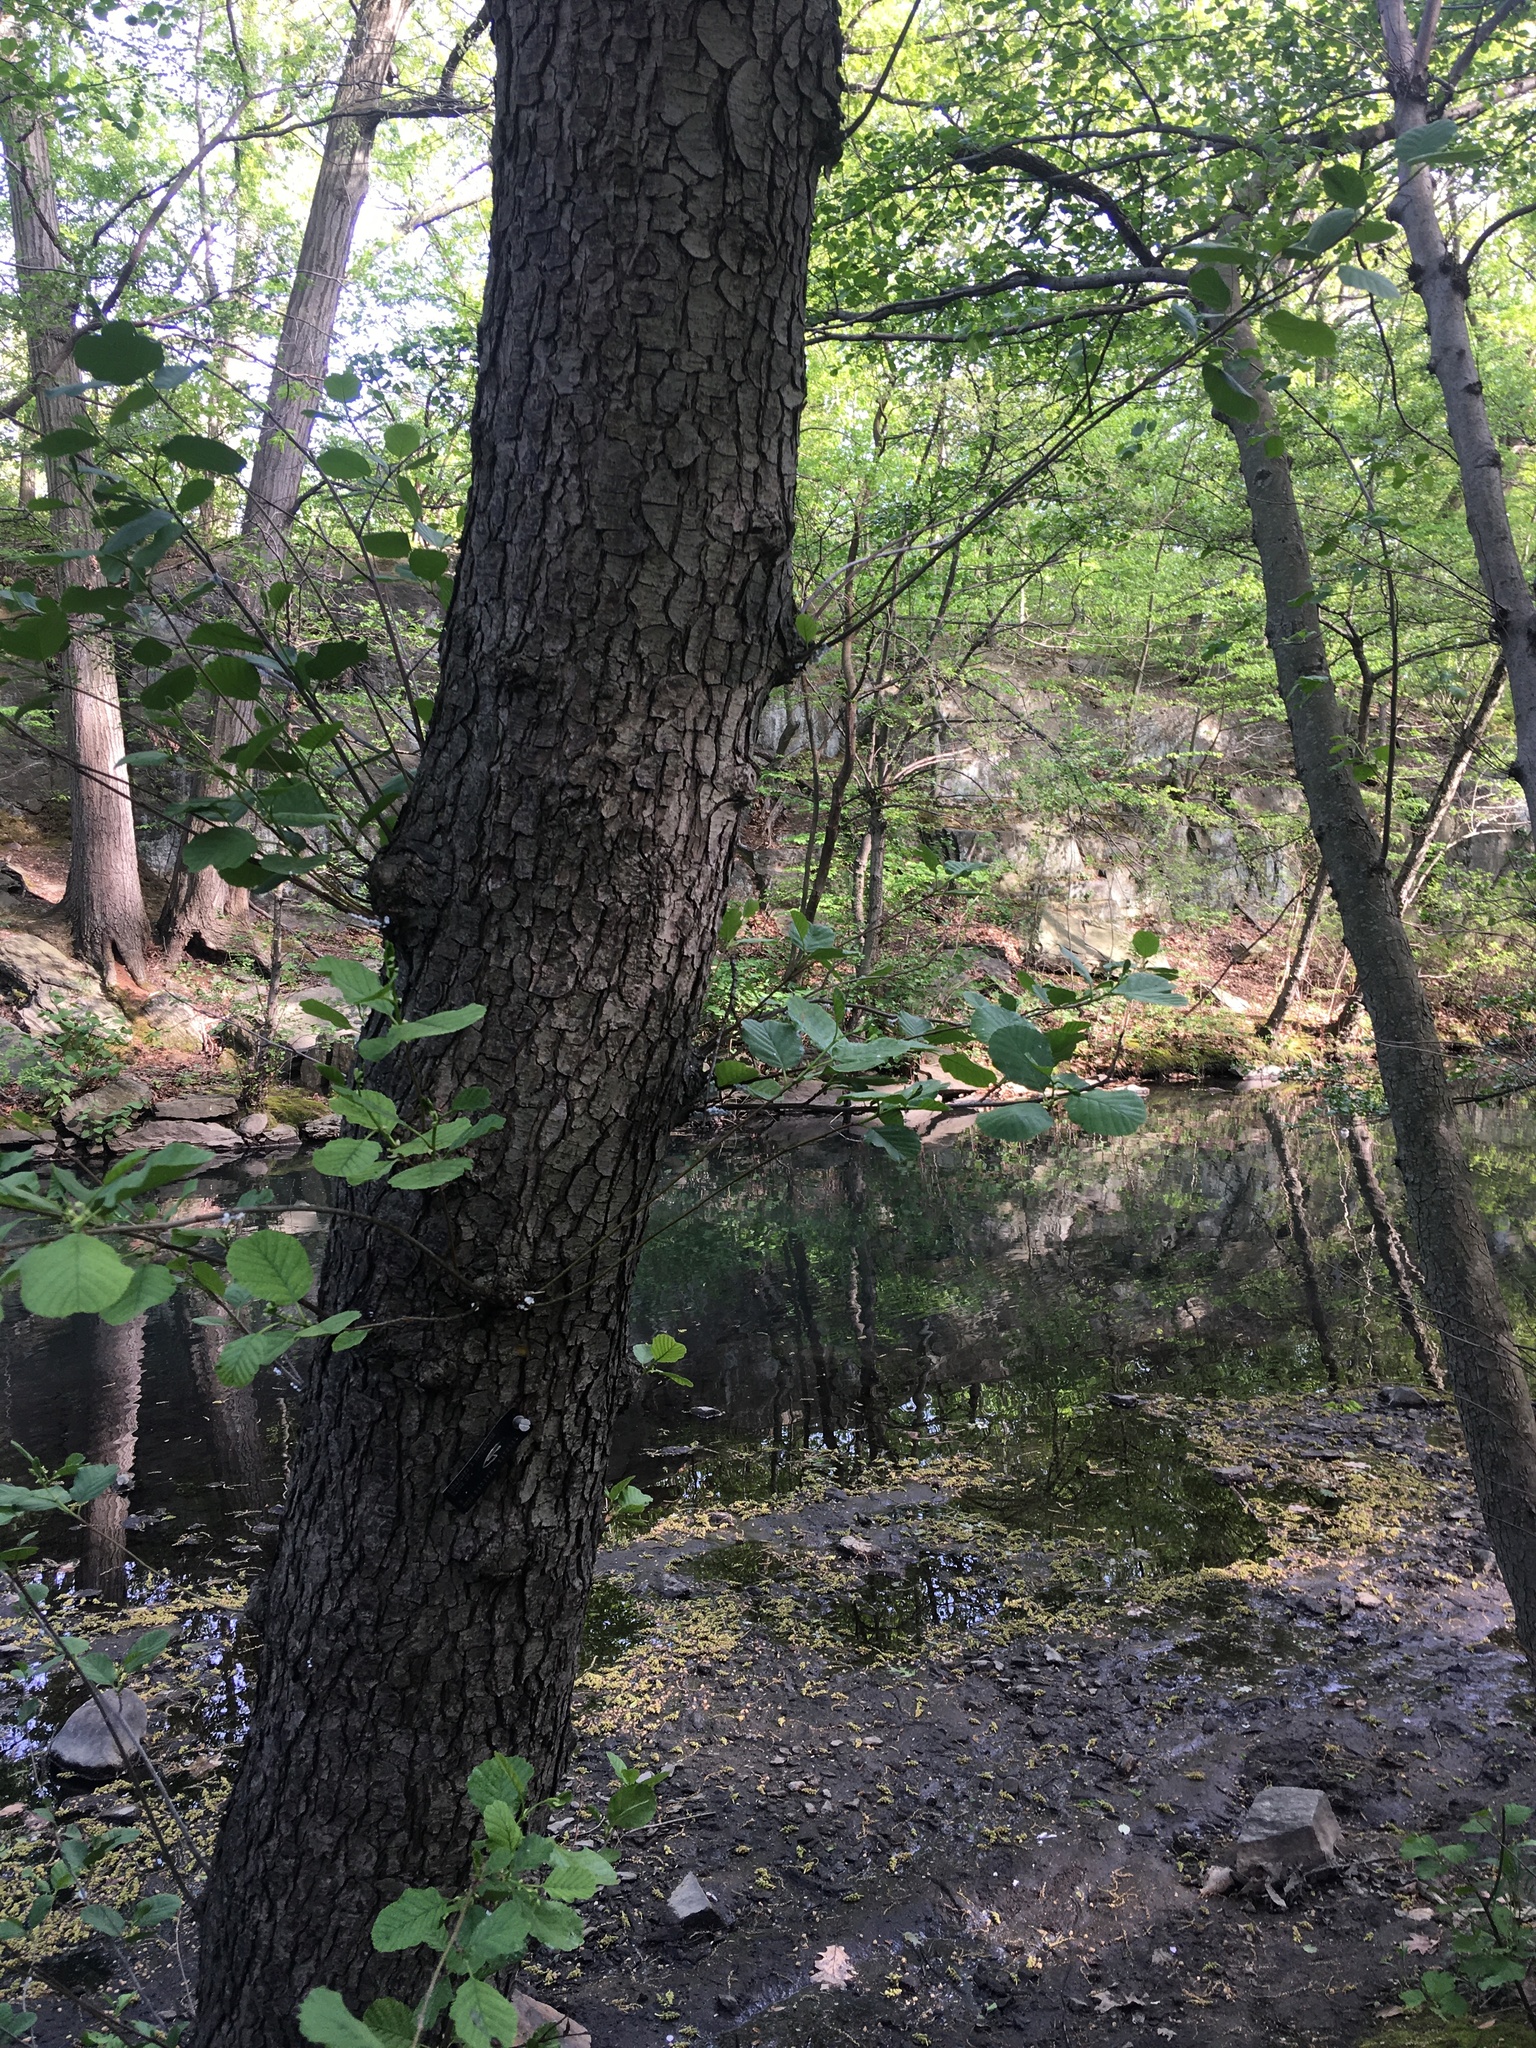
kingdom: Plantae
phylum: Tracheophyta
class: Magnoliopsida
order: Fagales
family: Betulaceae
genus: Alnus
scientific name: Alnus glutinosa
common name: Black alder
